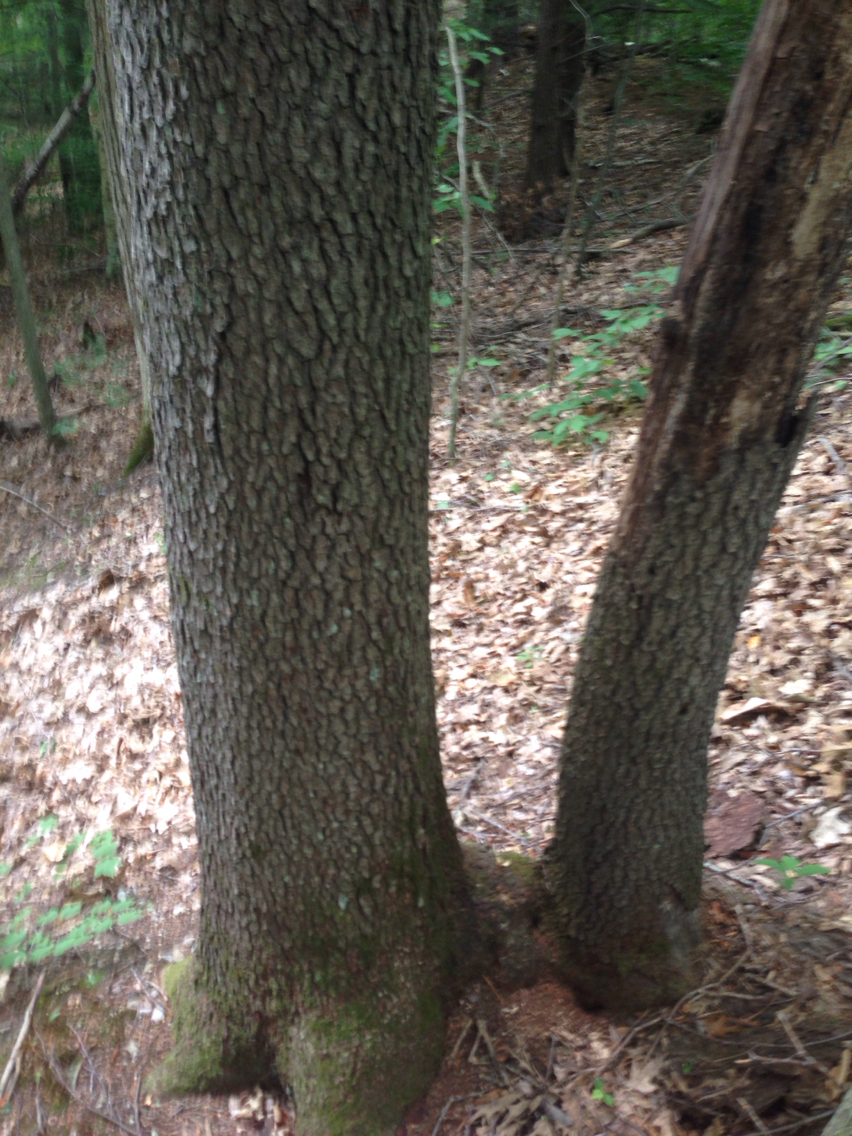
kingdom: Plantae
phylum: Tracheophyta
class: Magnoliopsida
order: Rosales
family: Rosaceae
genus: Prunus
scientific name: Prunus serotina
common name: Black cherry
